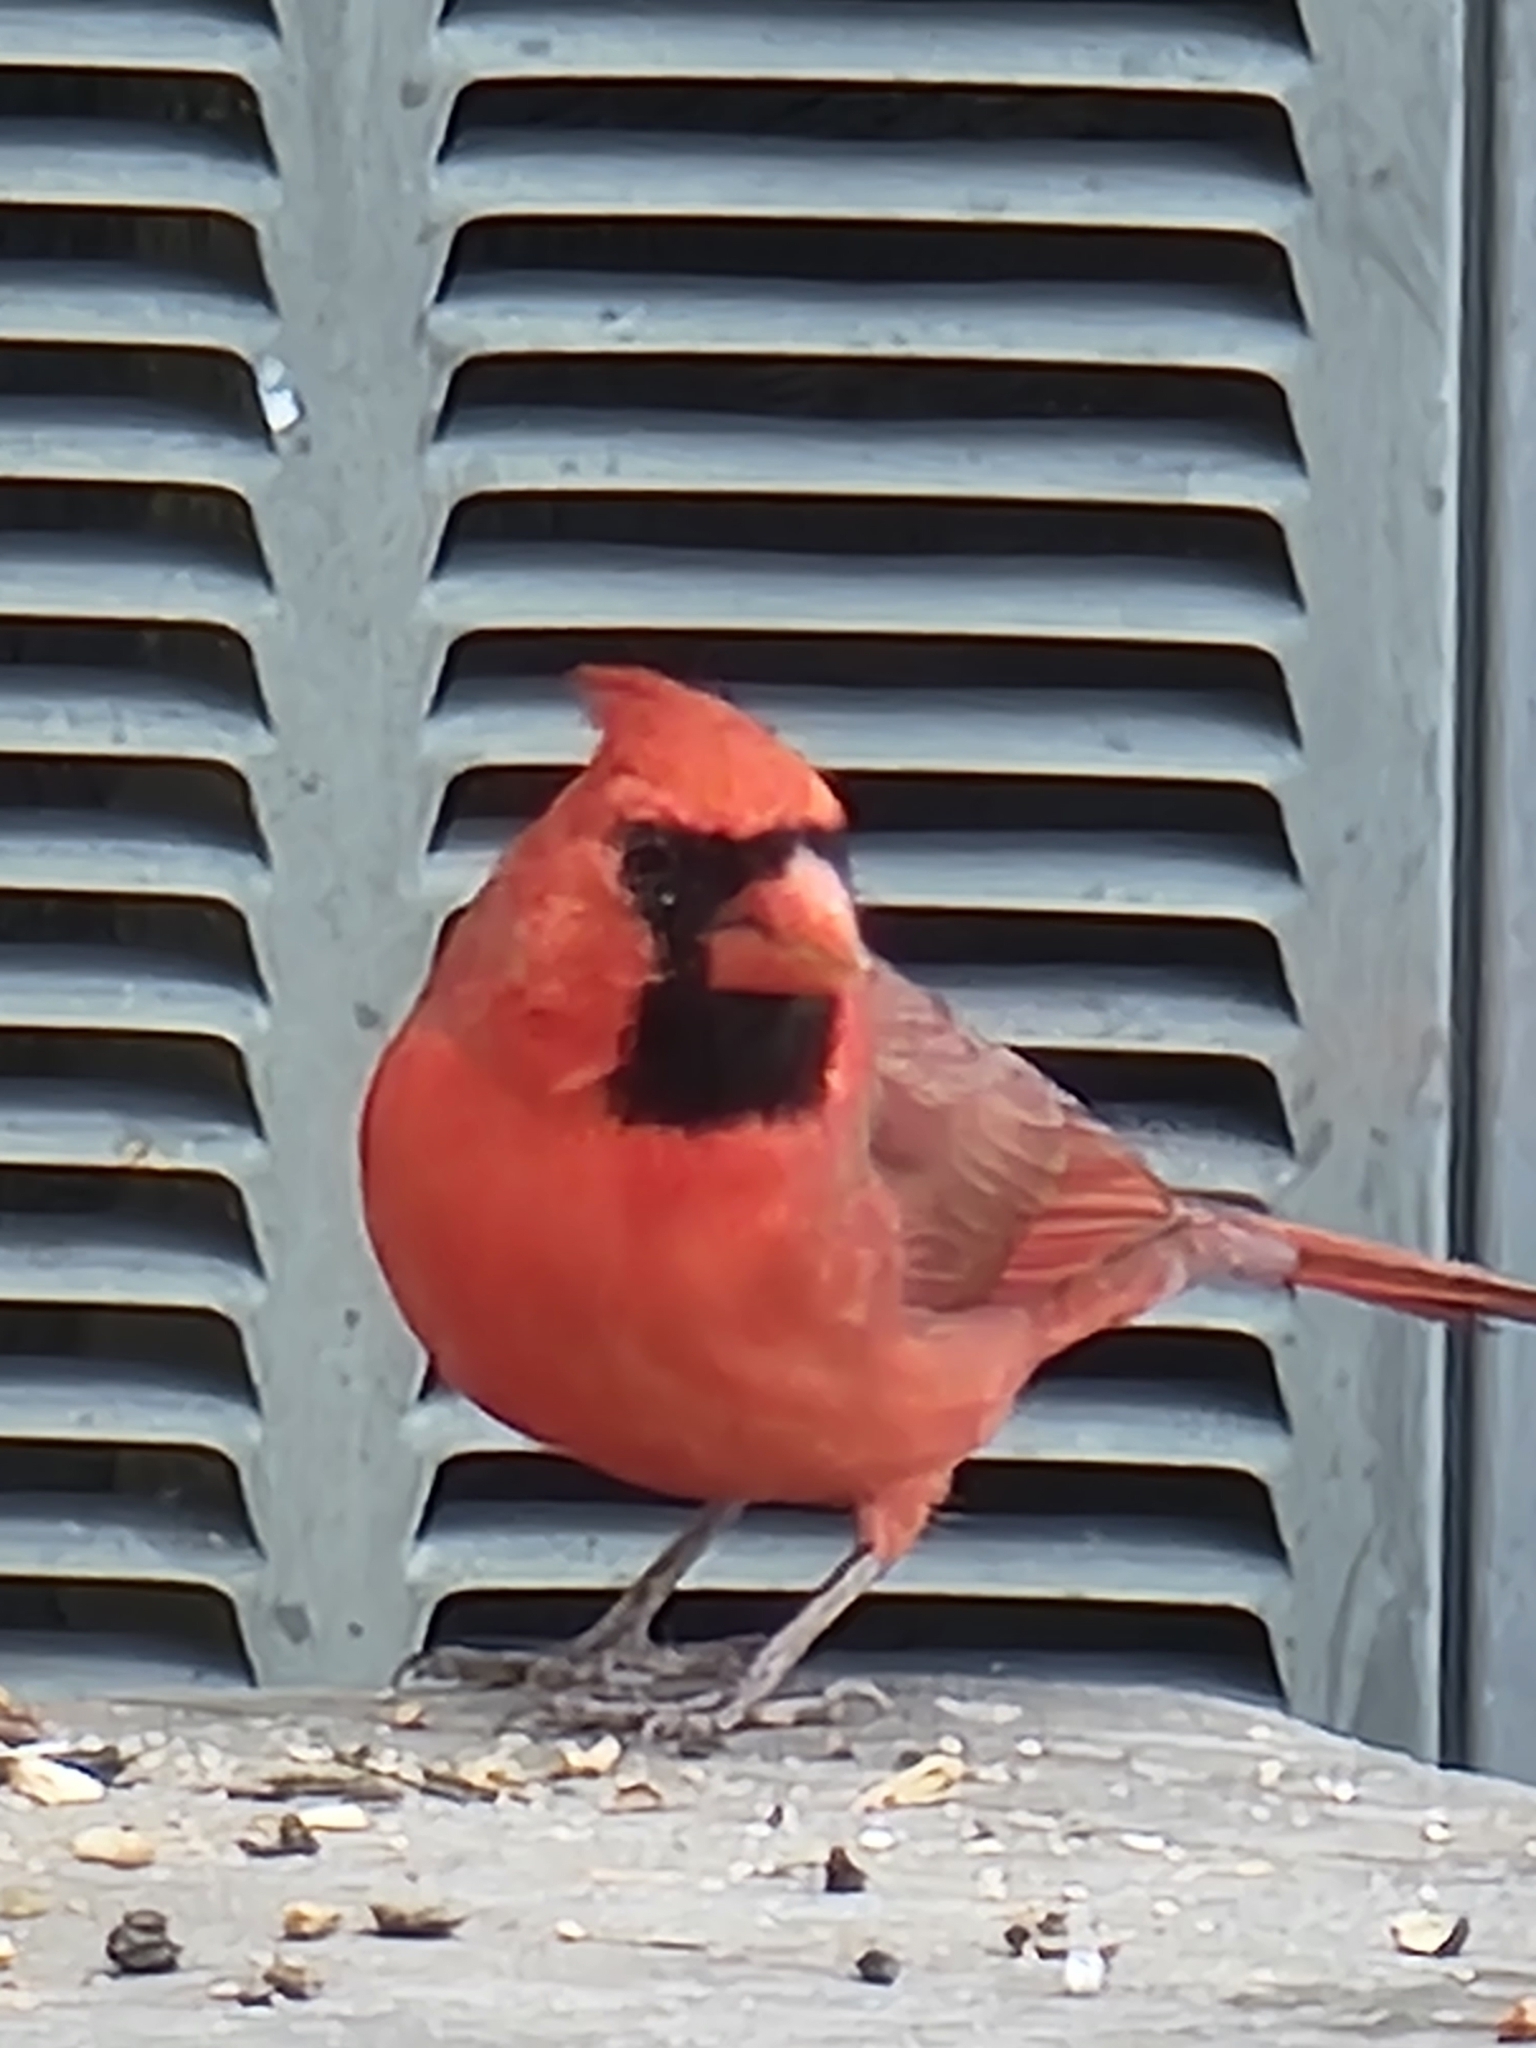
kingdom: Animalia
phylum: Chordata
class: Aves
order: Passeriformes
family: Cardinalidae
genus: Cardinalis
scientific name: Cardinalis cardinalis
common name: Northern cardinal
